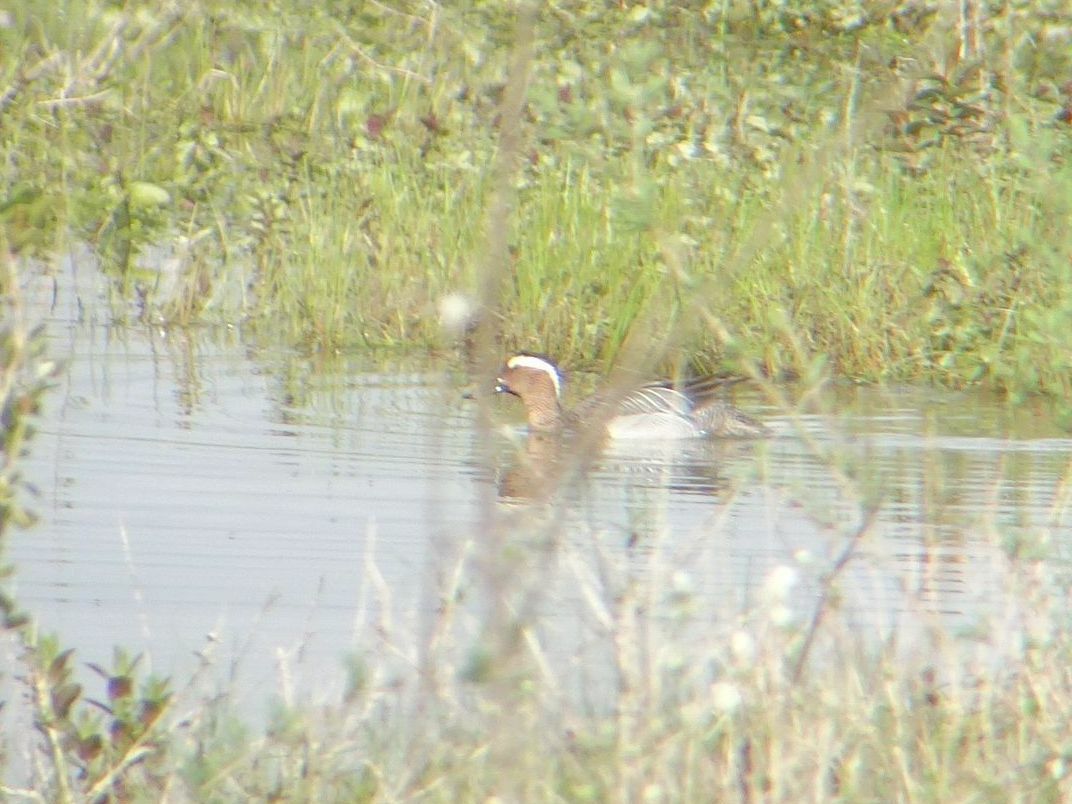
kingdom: Animalia
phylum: Chordata
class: Aves
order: Anseriformes
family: Anatidae
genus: Spatula
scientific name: Spatula querquedula
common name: Garganey
